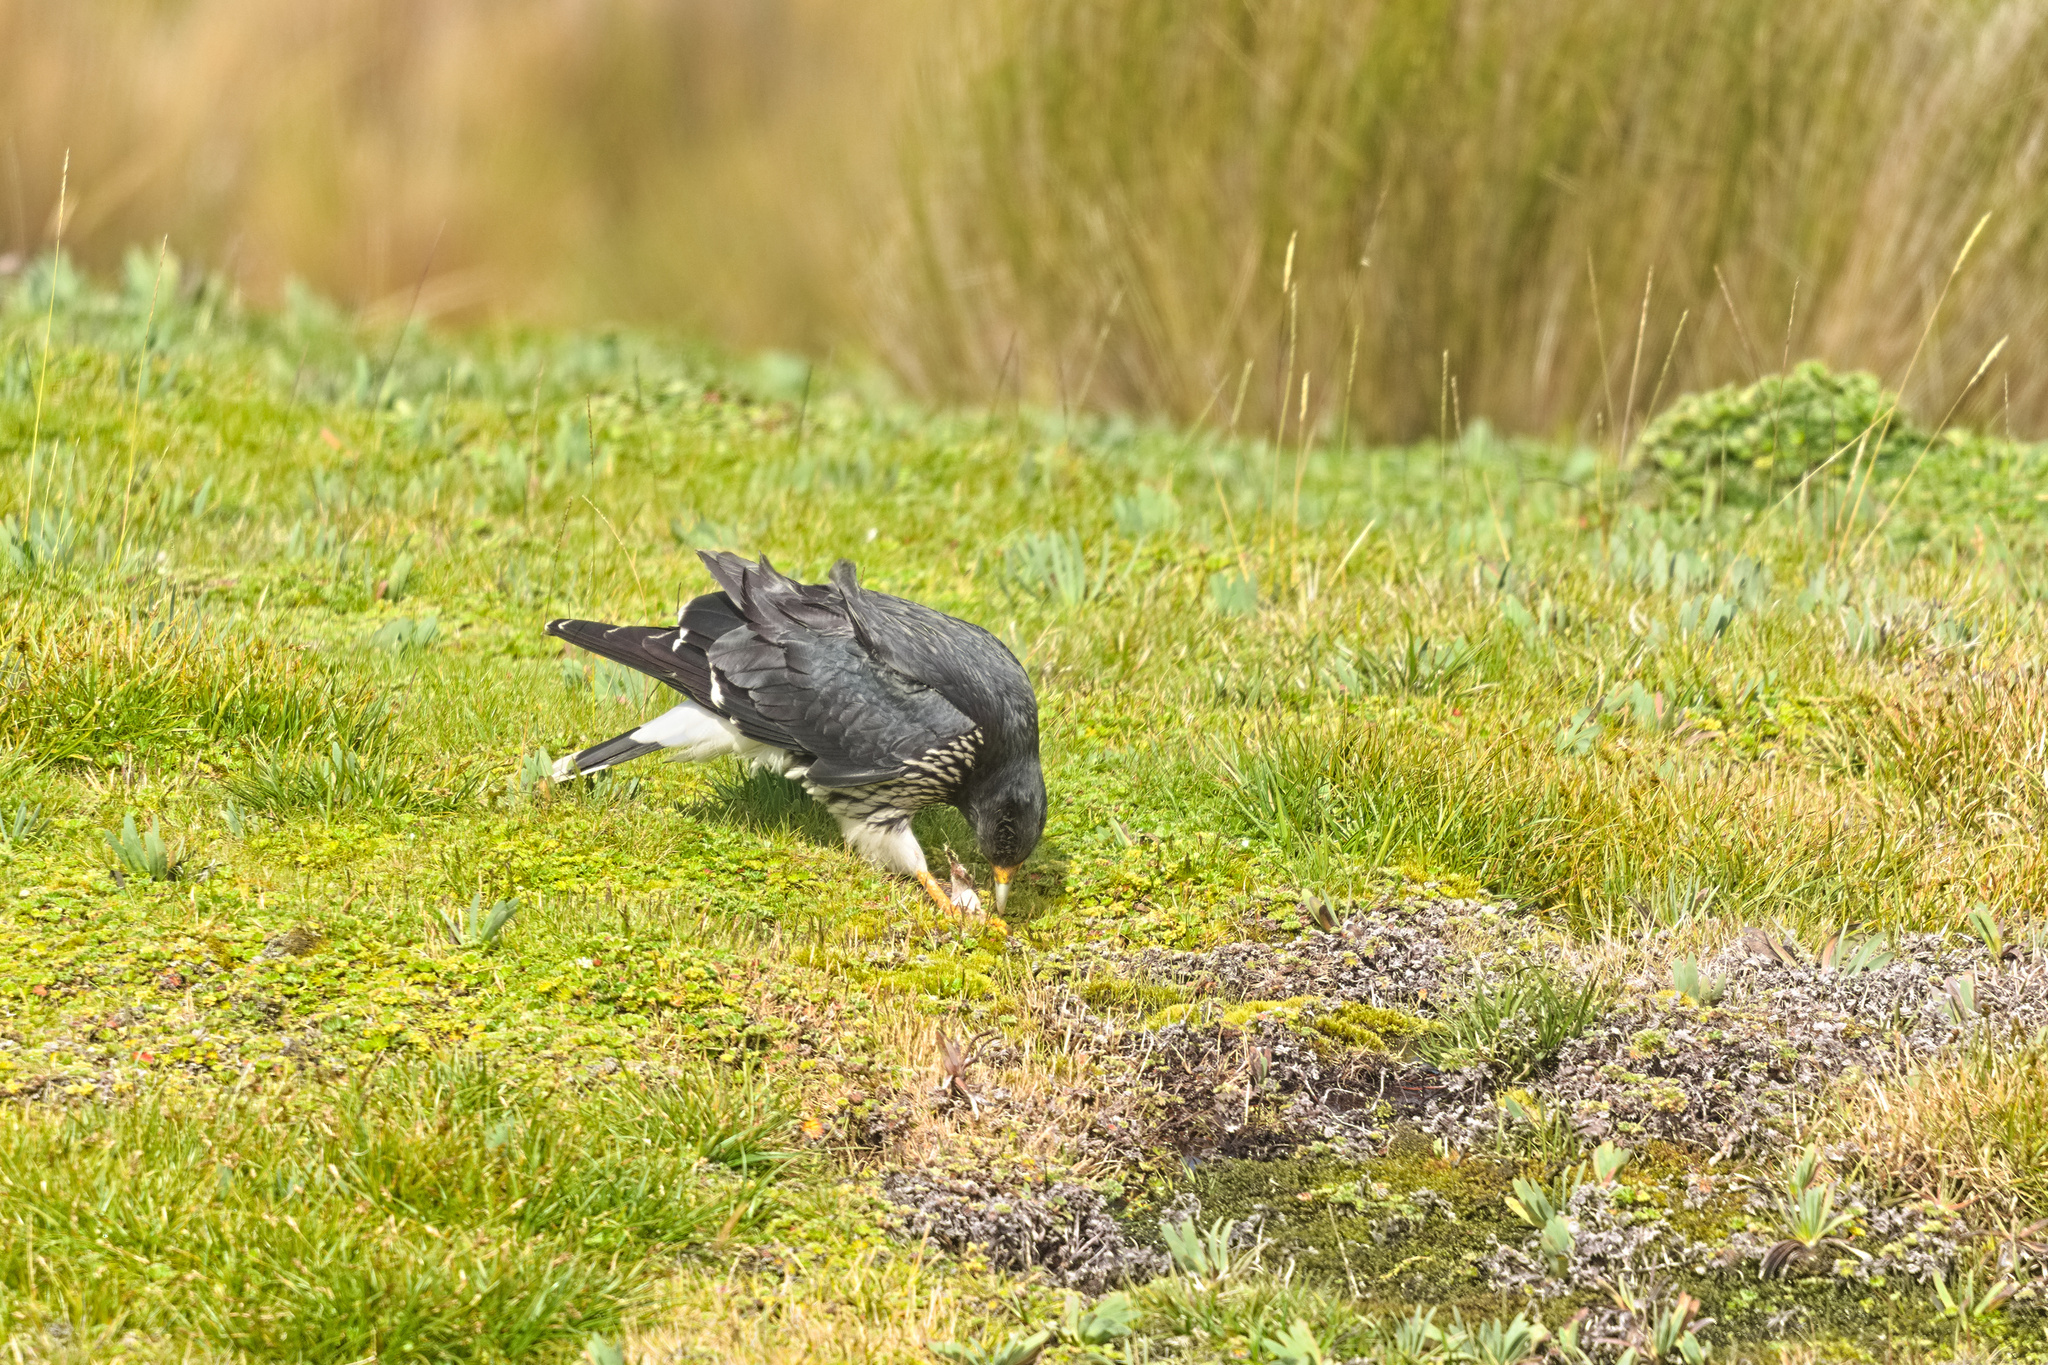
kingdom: Animalia
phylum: Chordata
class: Aves
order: Falconiformes
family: Falconidae
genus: Daptrius
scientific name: Daptrius
